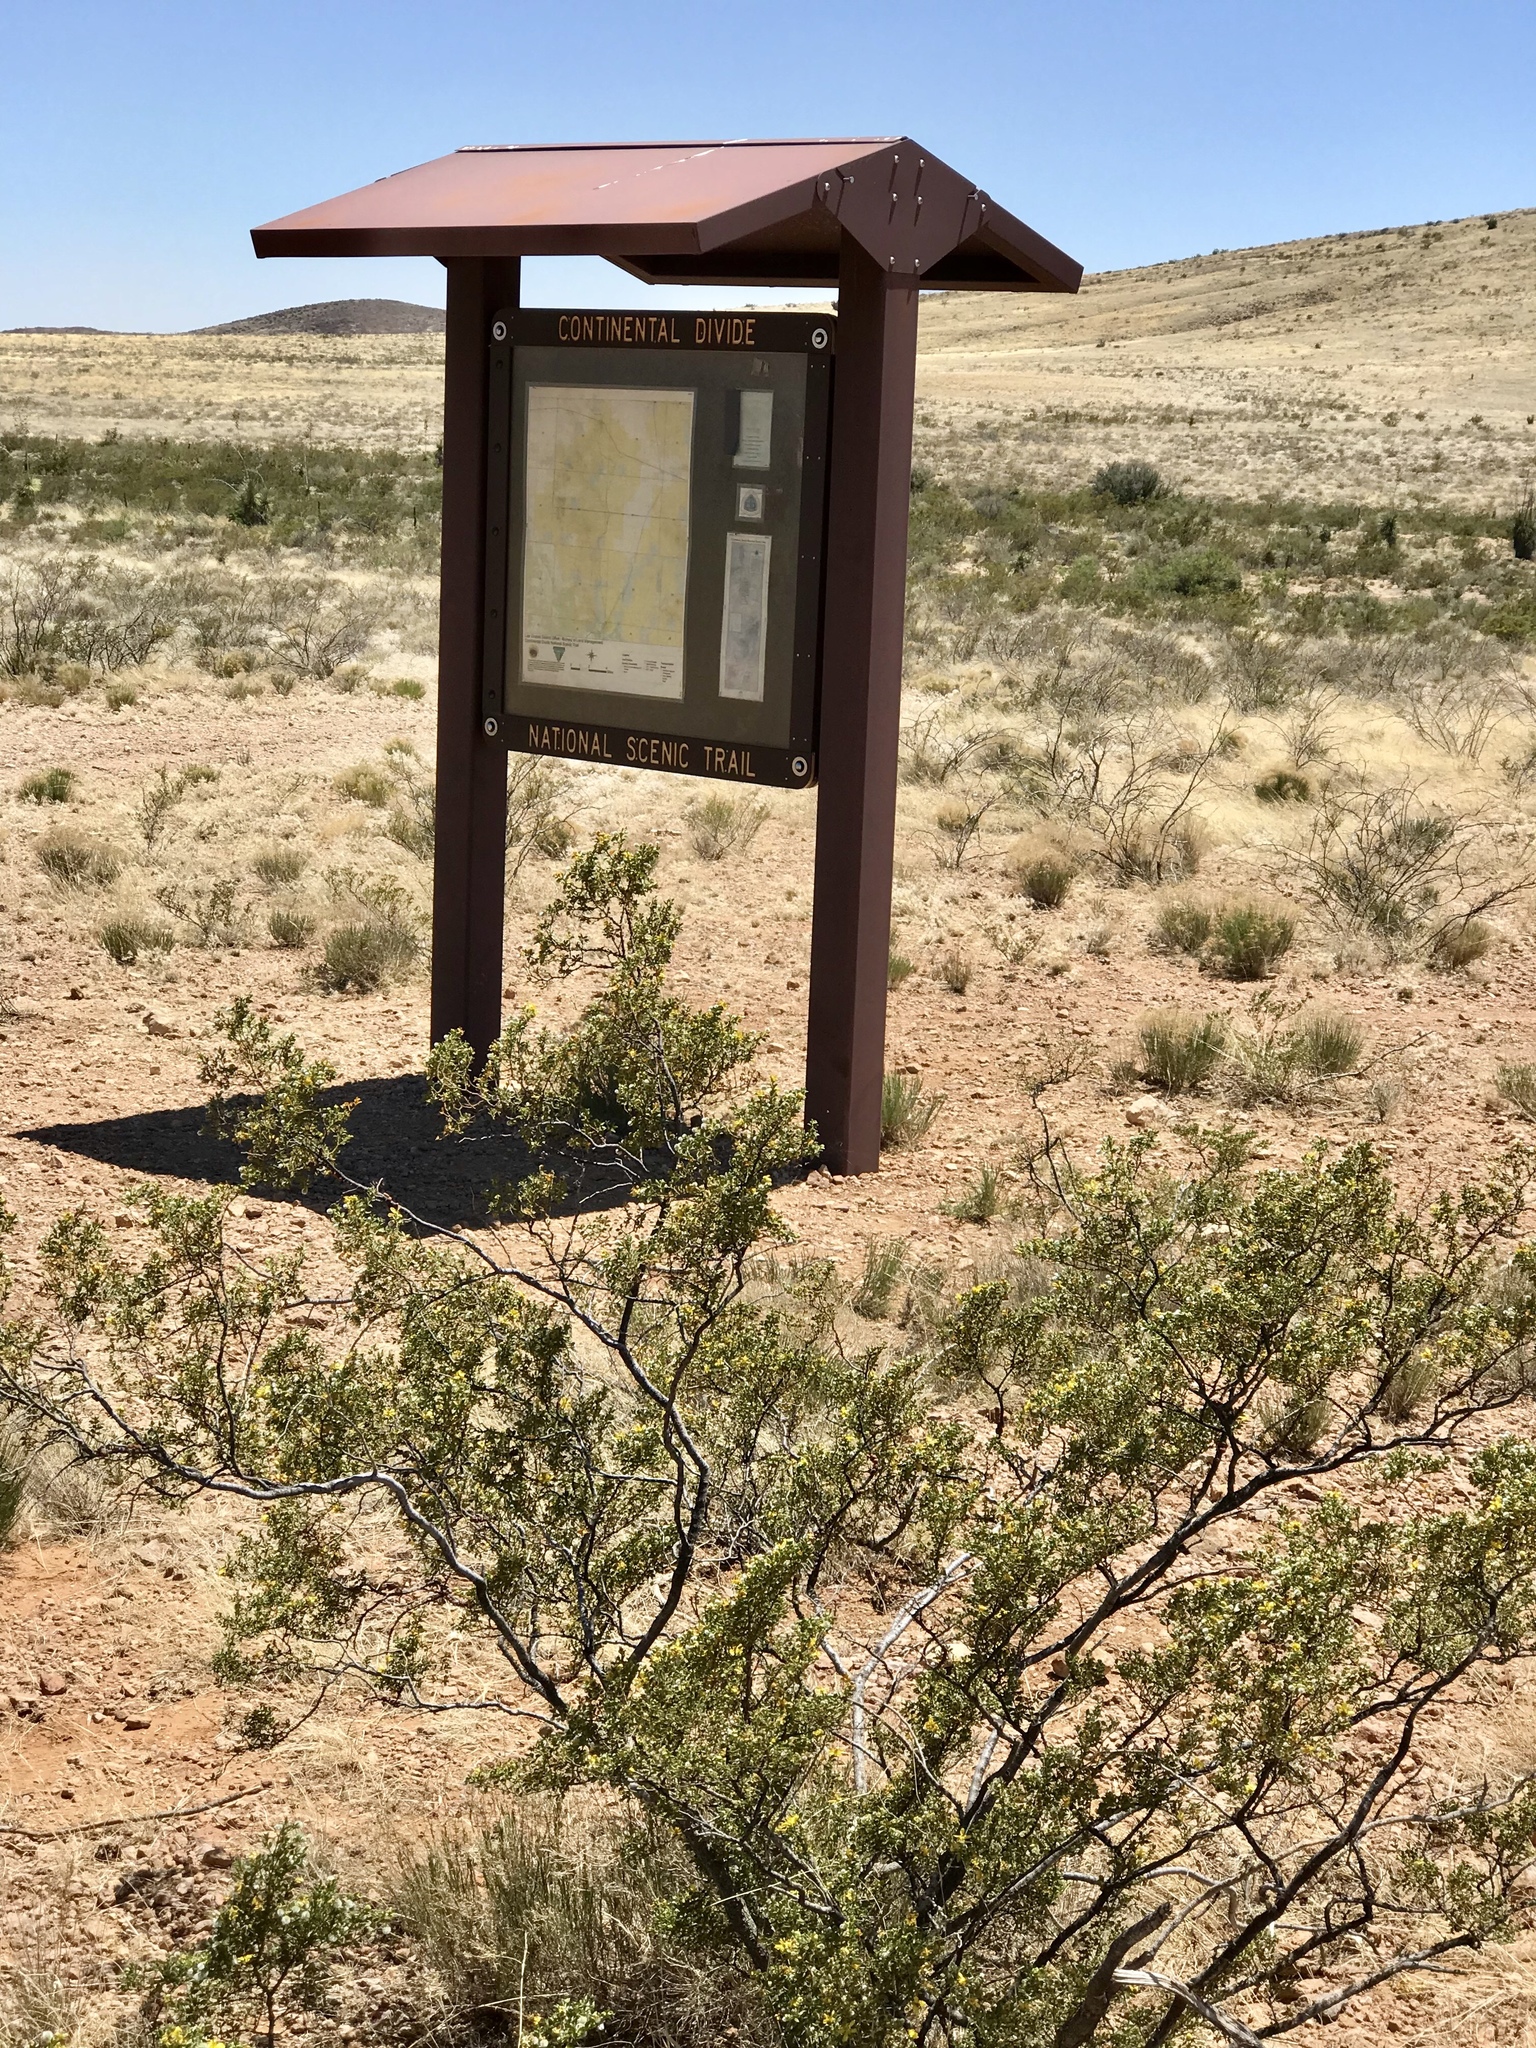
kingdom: Plantae
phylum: Tracheophyta
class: Magnoliopsida
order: Zygophyllales
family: Zygophyllaceae
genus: Larrea
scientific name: Larrea tridentata
